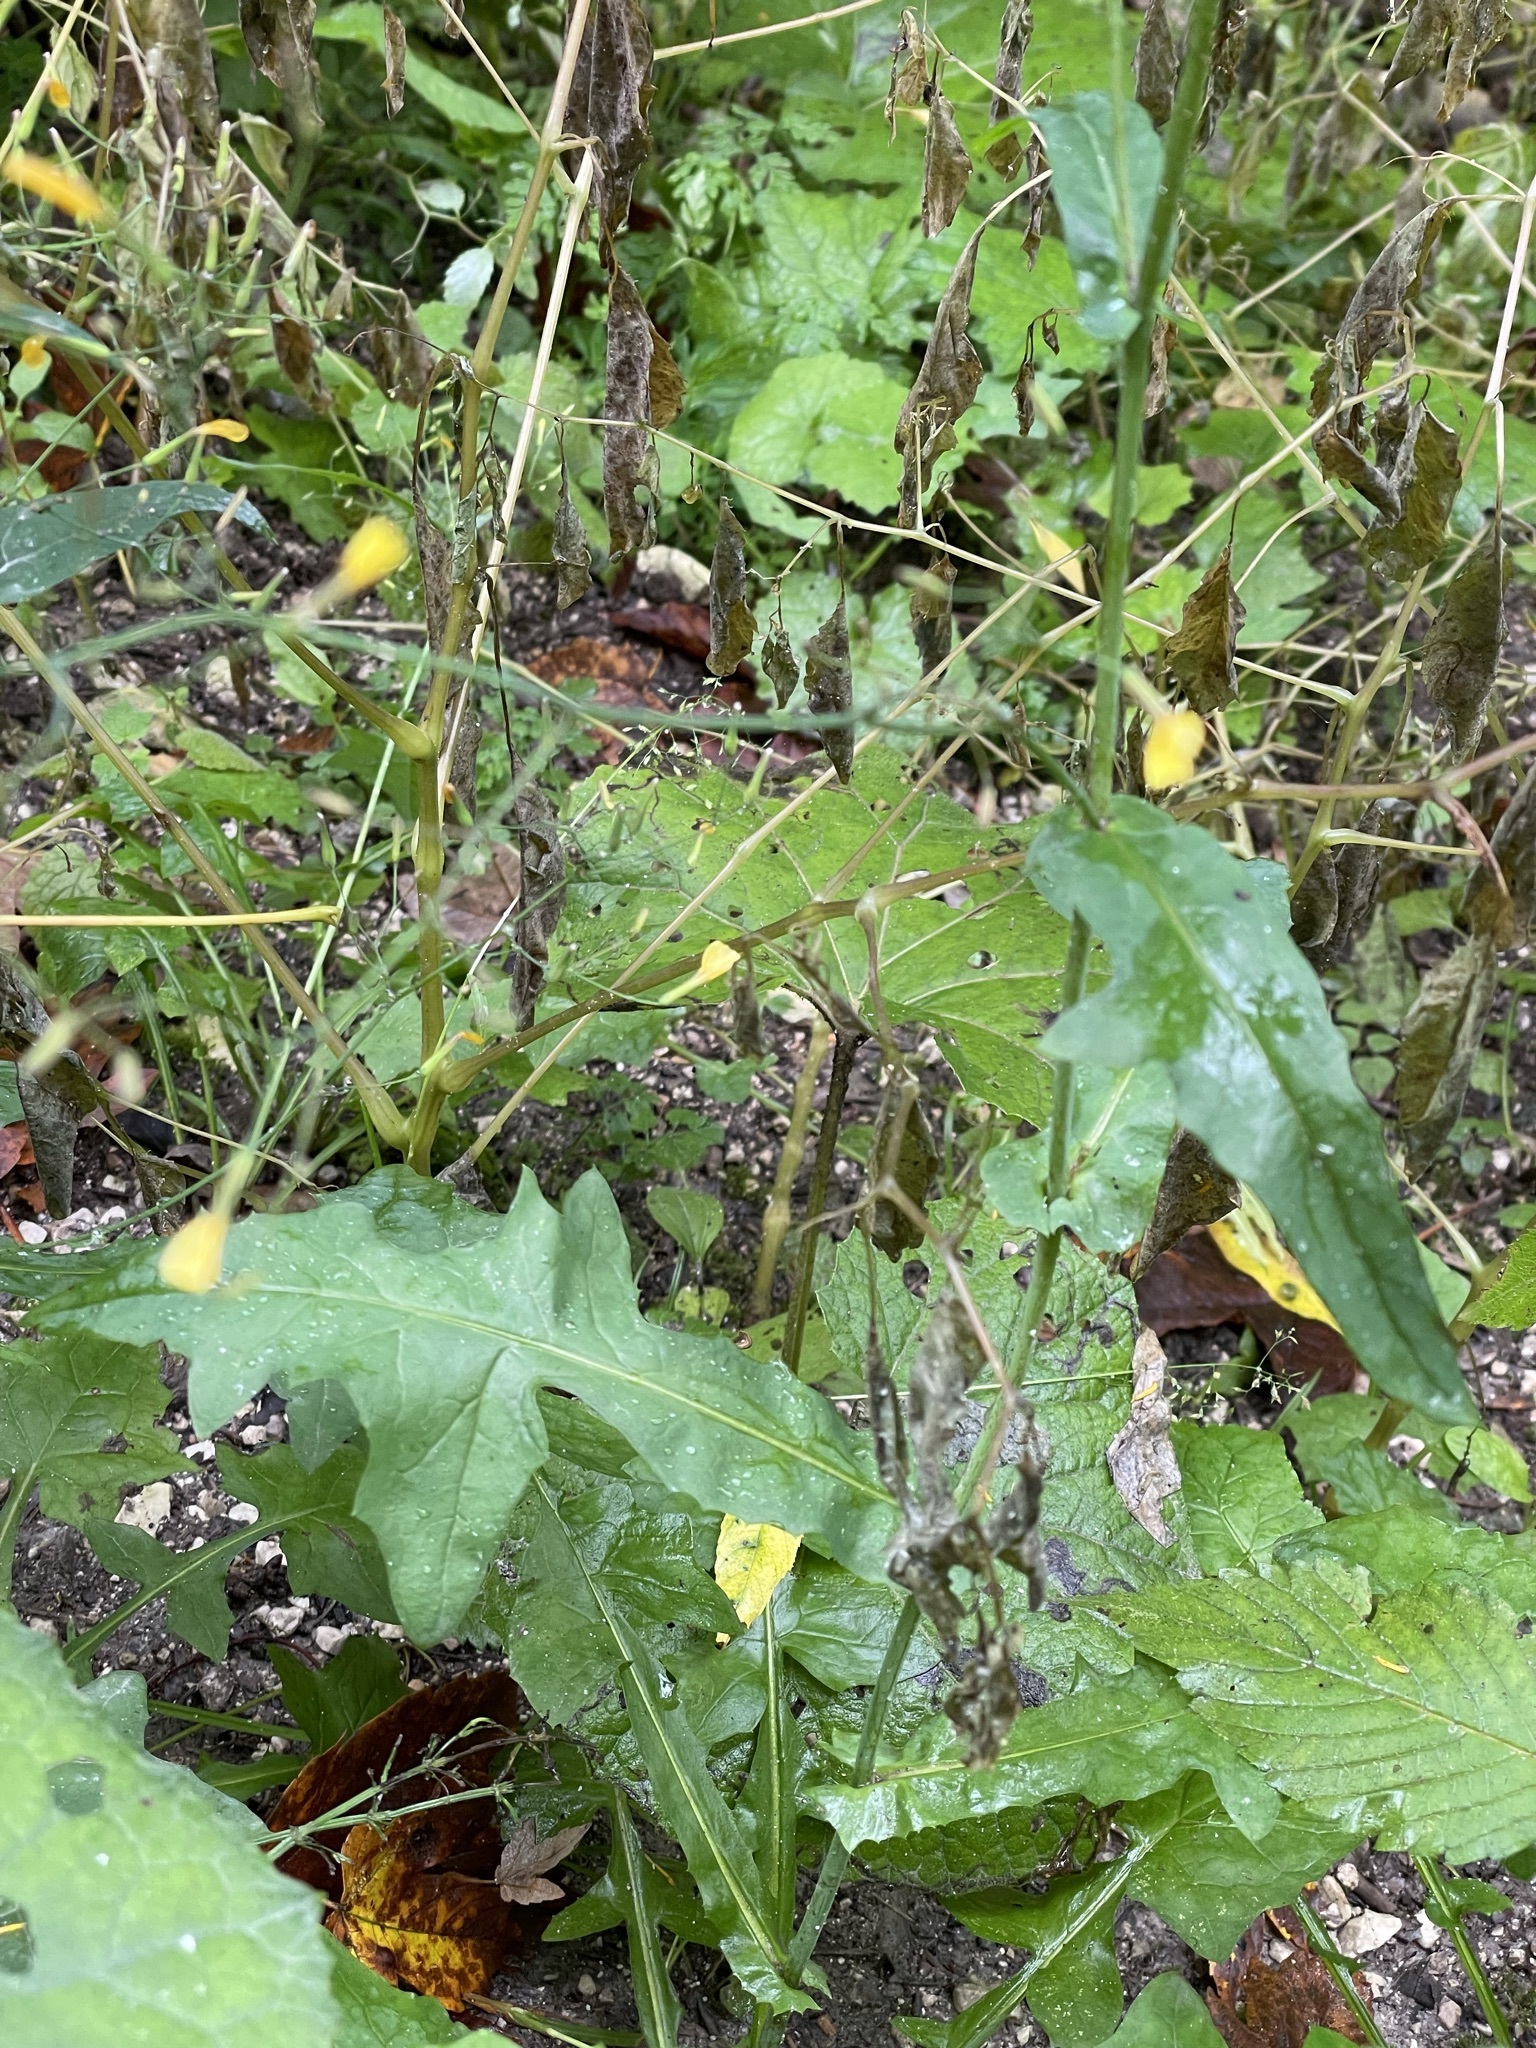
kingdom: Plantae
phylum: Tracheophyta
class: Magnoliopsida
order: Asterales
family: Asteraceae
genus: Mycelis
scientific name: Mycelis muralis
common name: Wall lettuce
